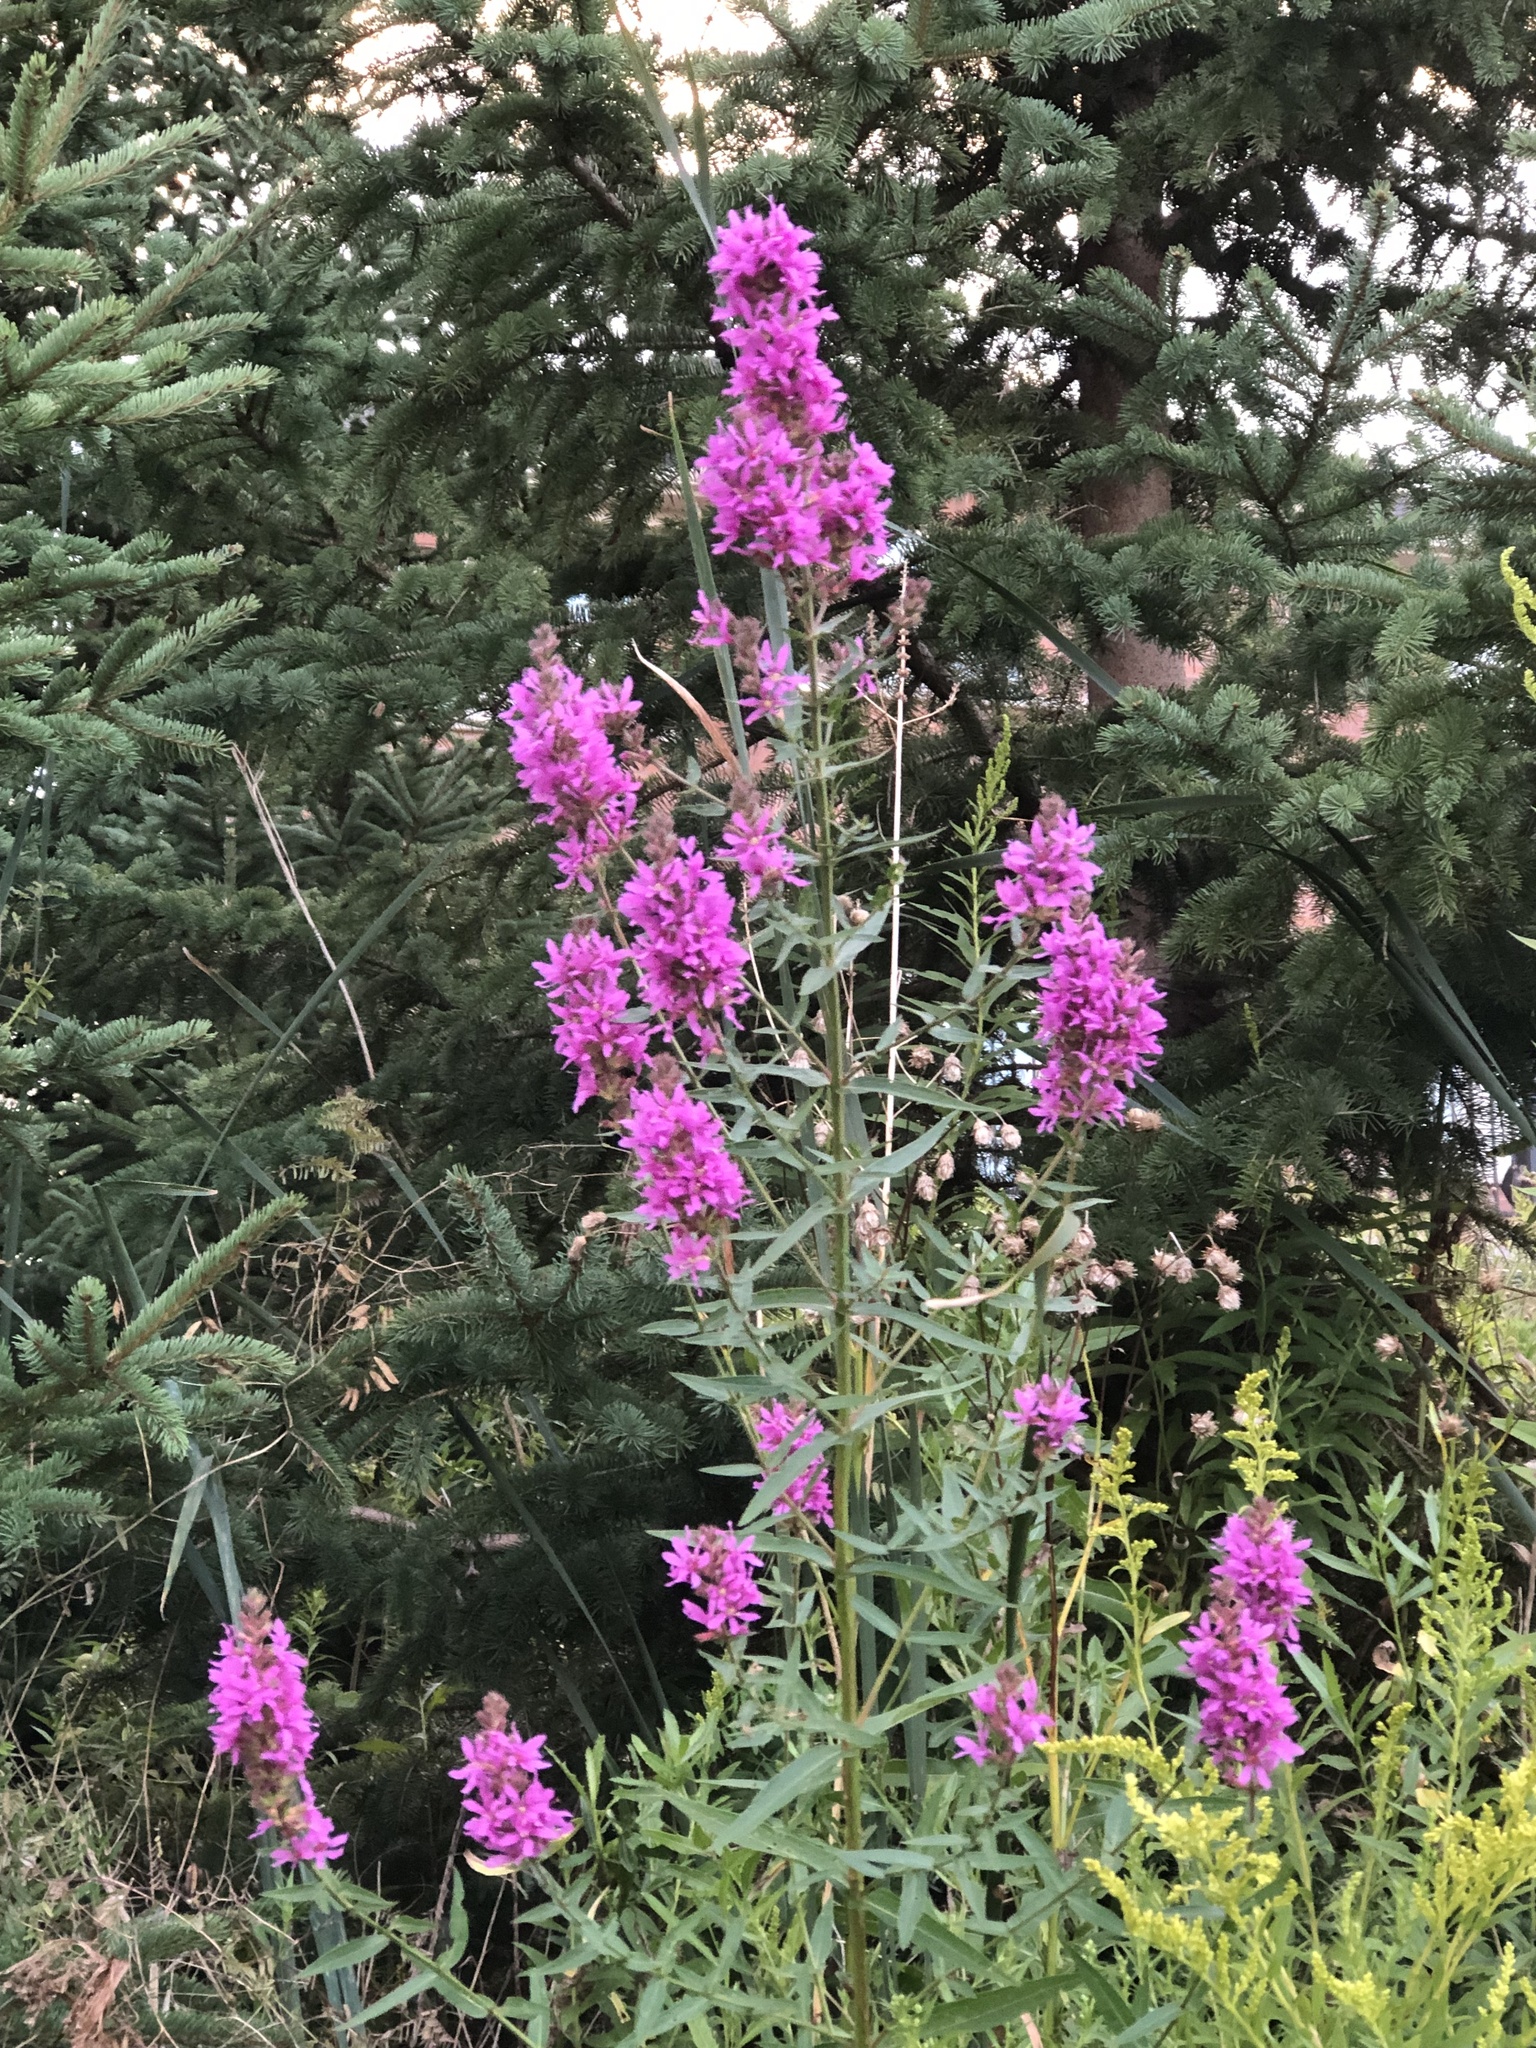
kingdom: Plantae
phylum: Tracheophyta
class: Magnoliopsida
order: Myrtales
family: Lythraceae
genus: Lythrum
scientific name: Lythrum salicaria
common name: Purple loosestrife
